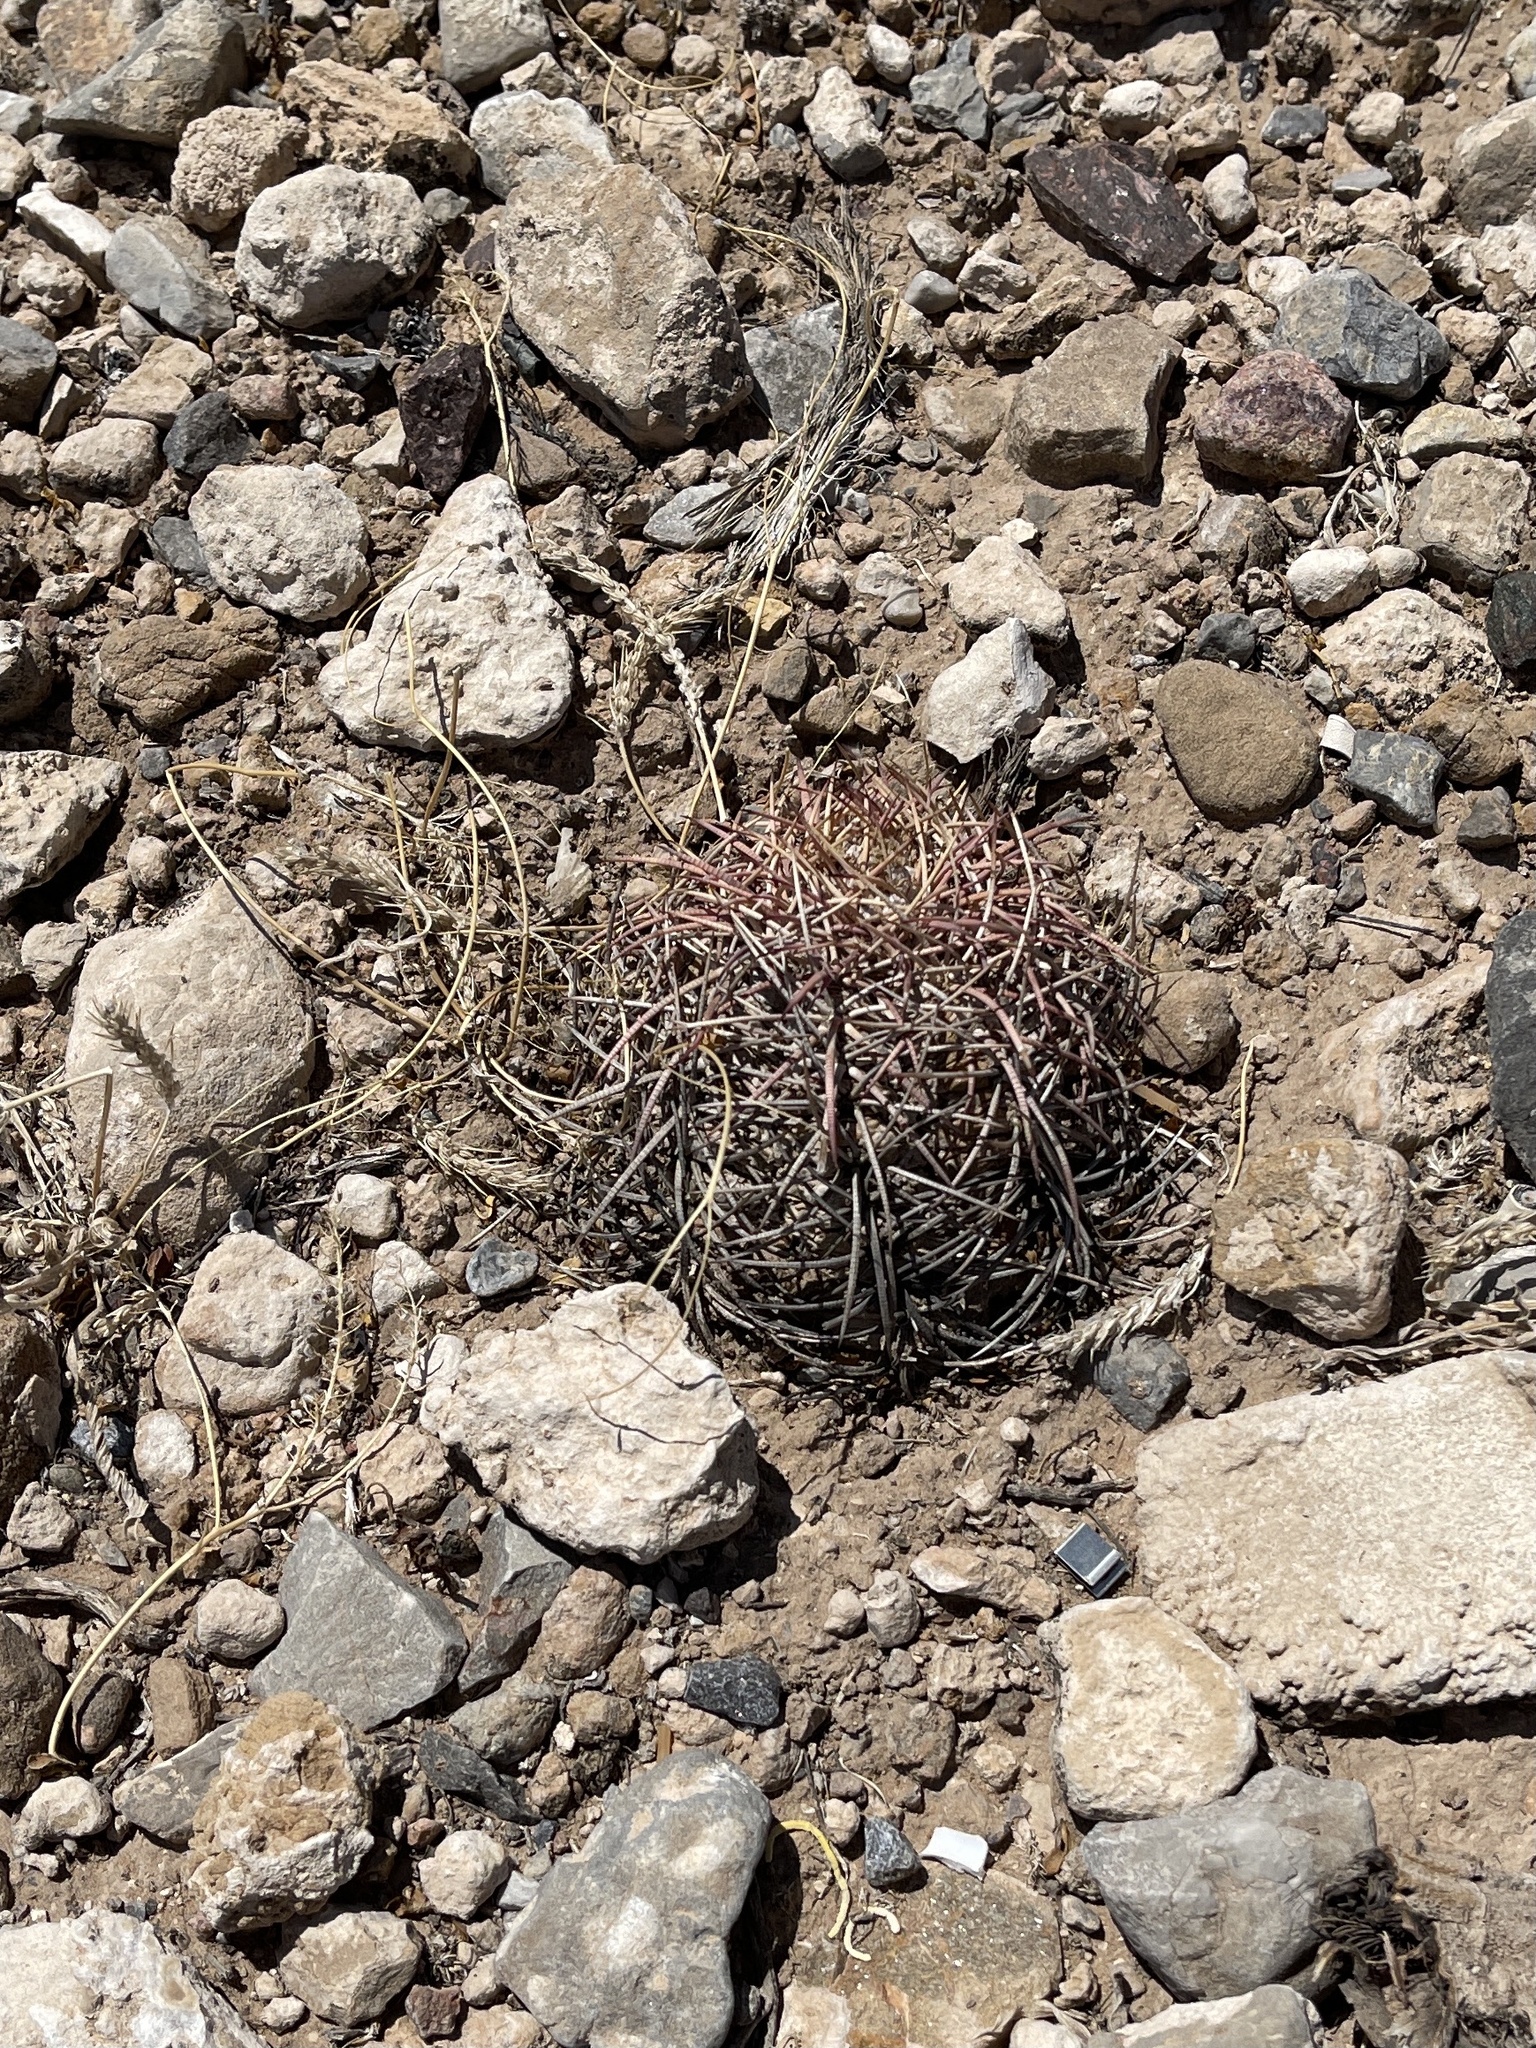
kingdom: Plantae
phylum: Tracheophyta
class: Magnoliopsida
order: Caryophyllales
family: Cactaceae
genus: Echinocactus
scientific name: Echinocactus horizonthalonius
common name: Devilshead
